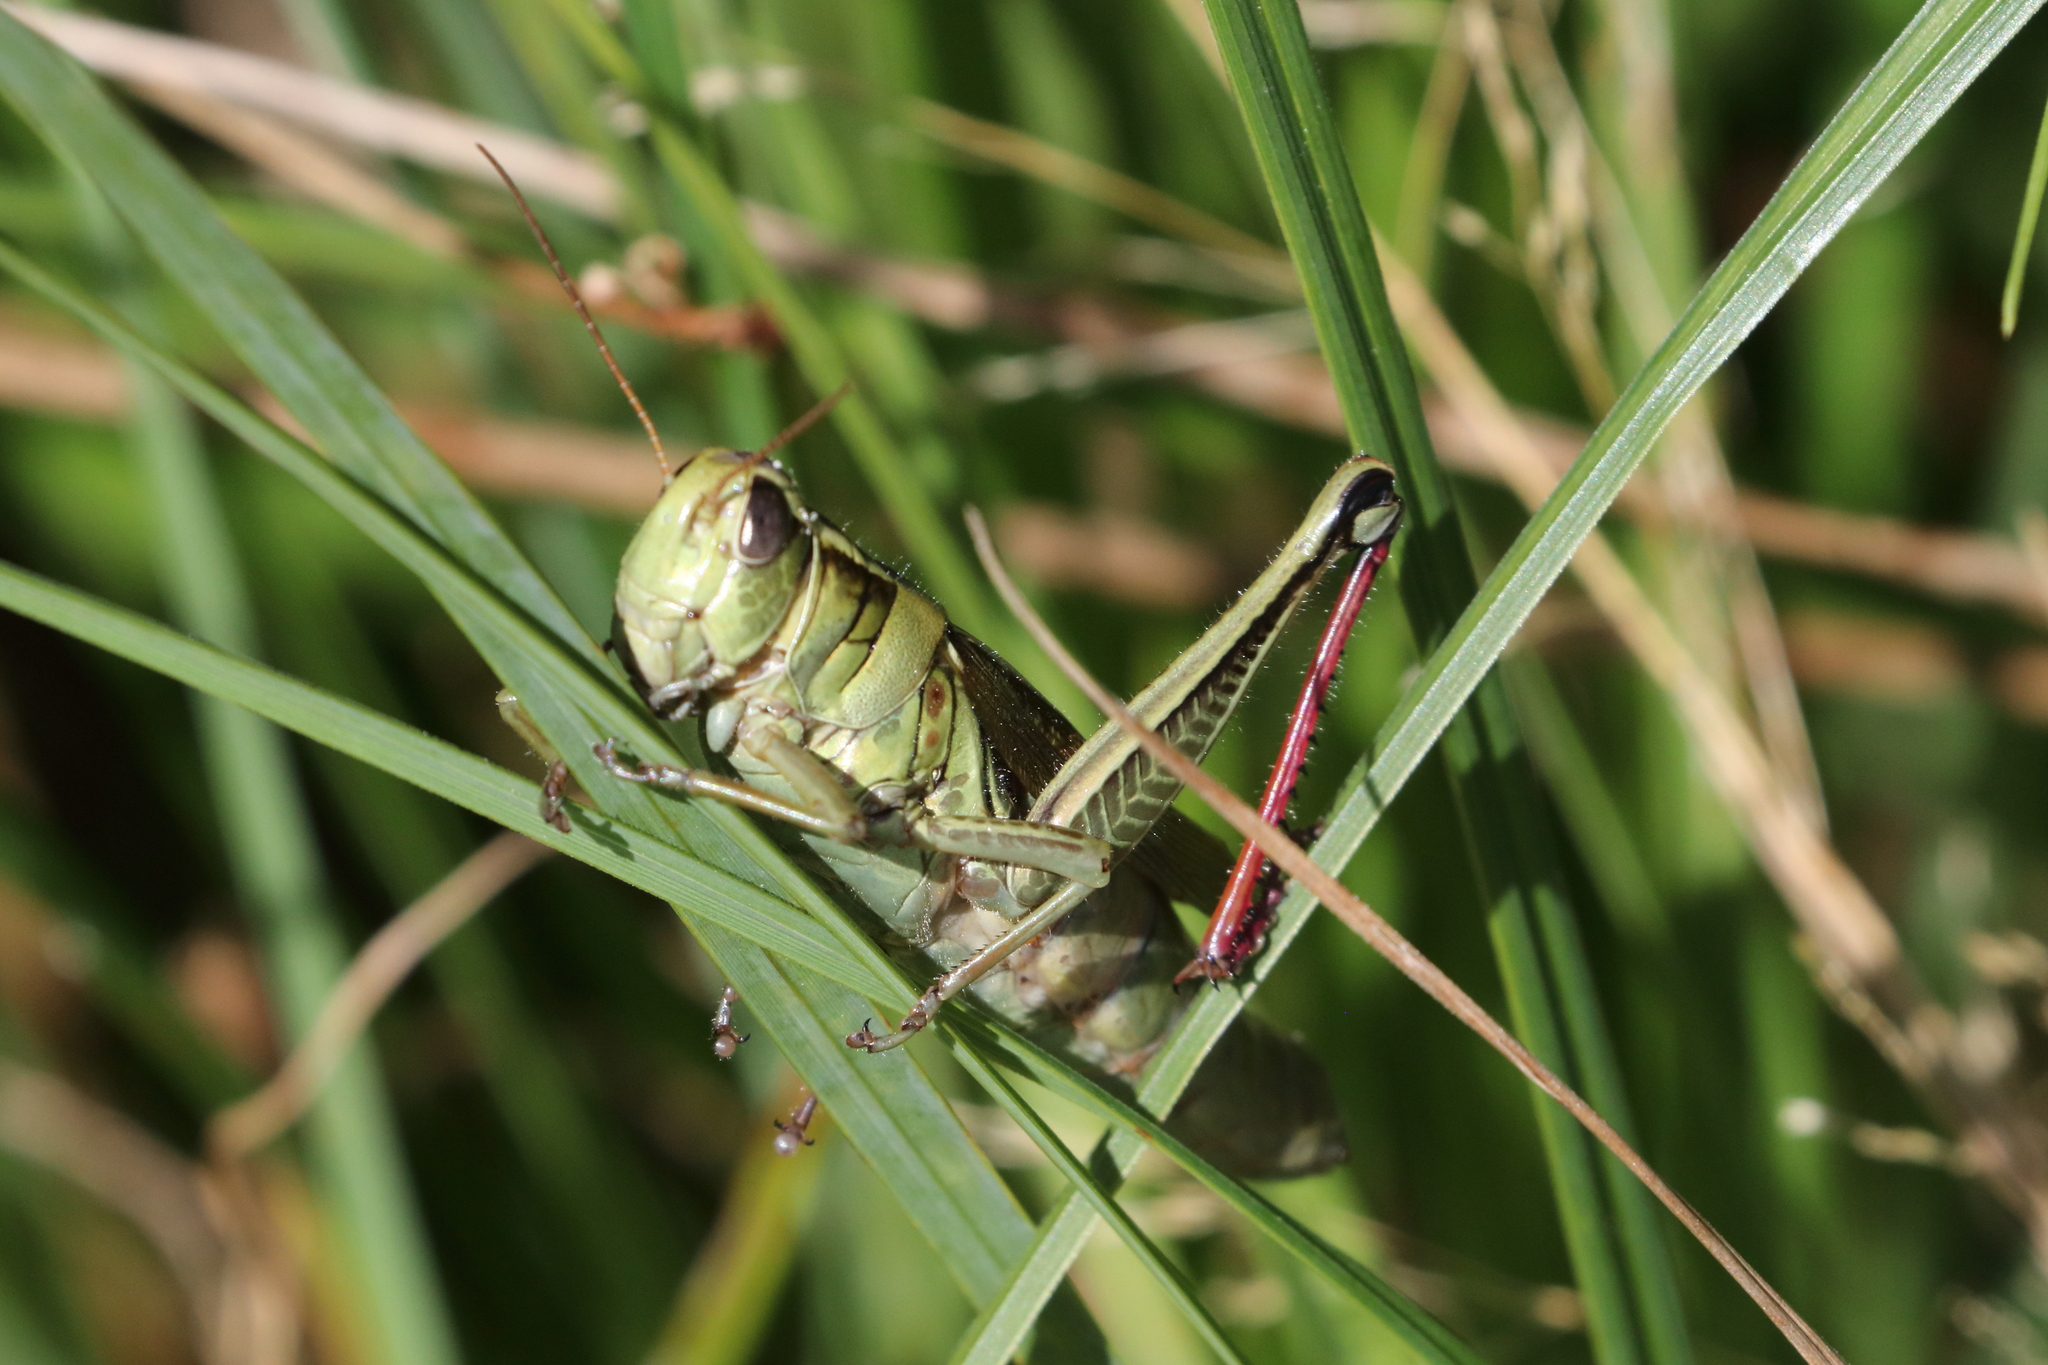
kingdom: Animalia
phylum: Arthropoda
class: Insecta
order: Orthoptera
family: Acrididae
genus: Melanoplus
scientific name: Melanoplus bivittatus
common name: Two-striped grasshopper
